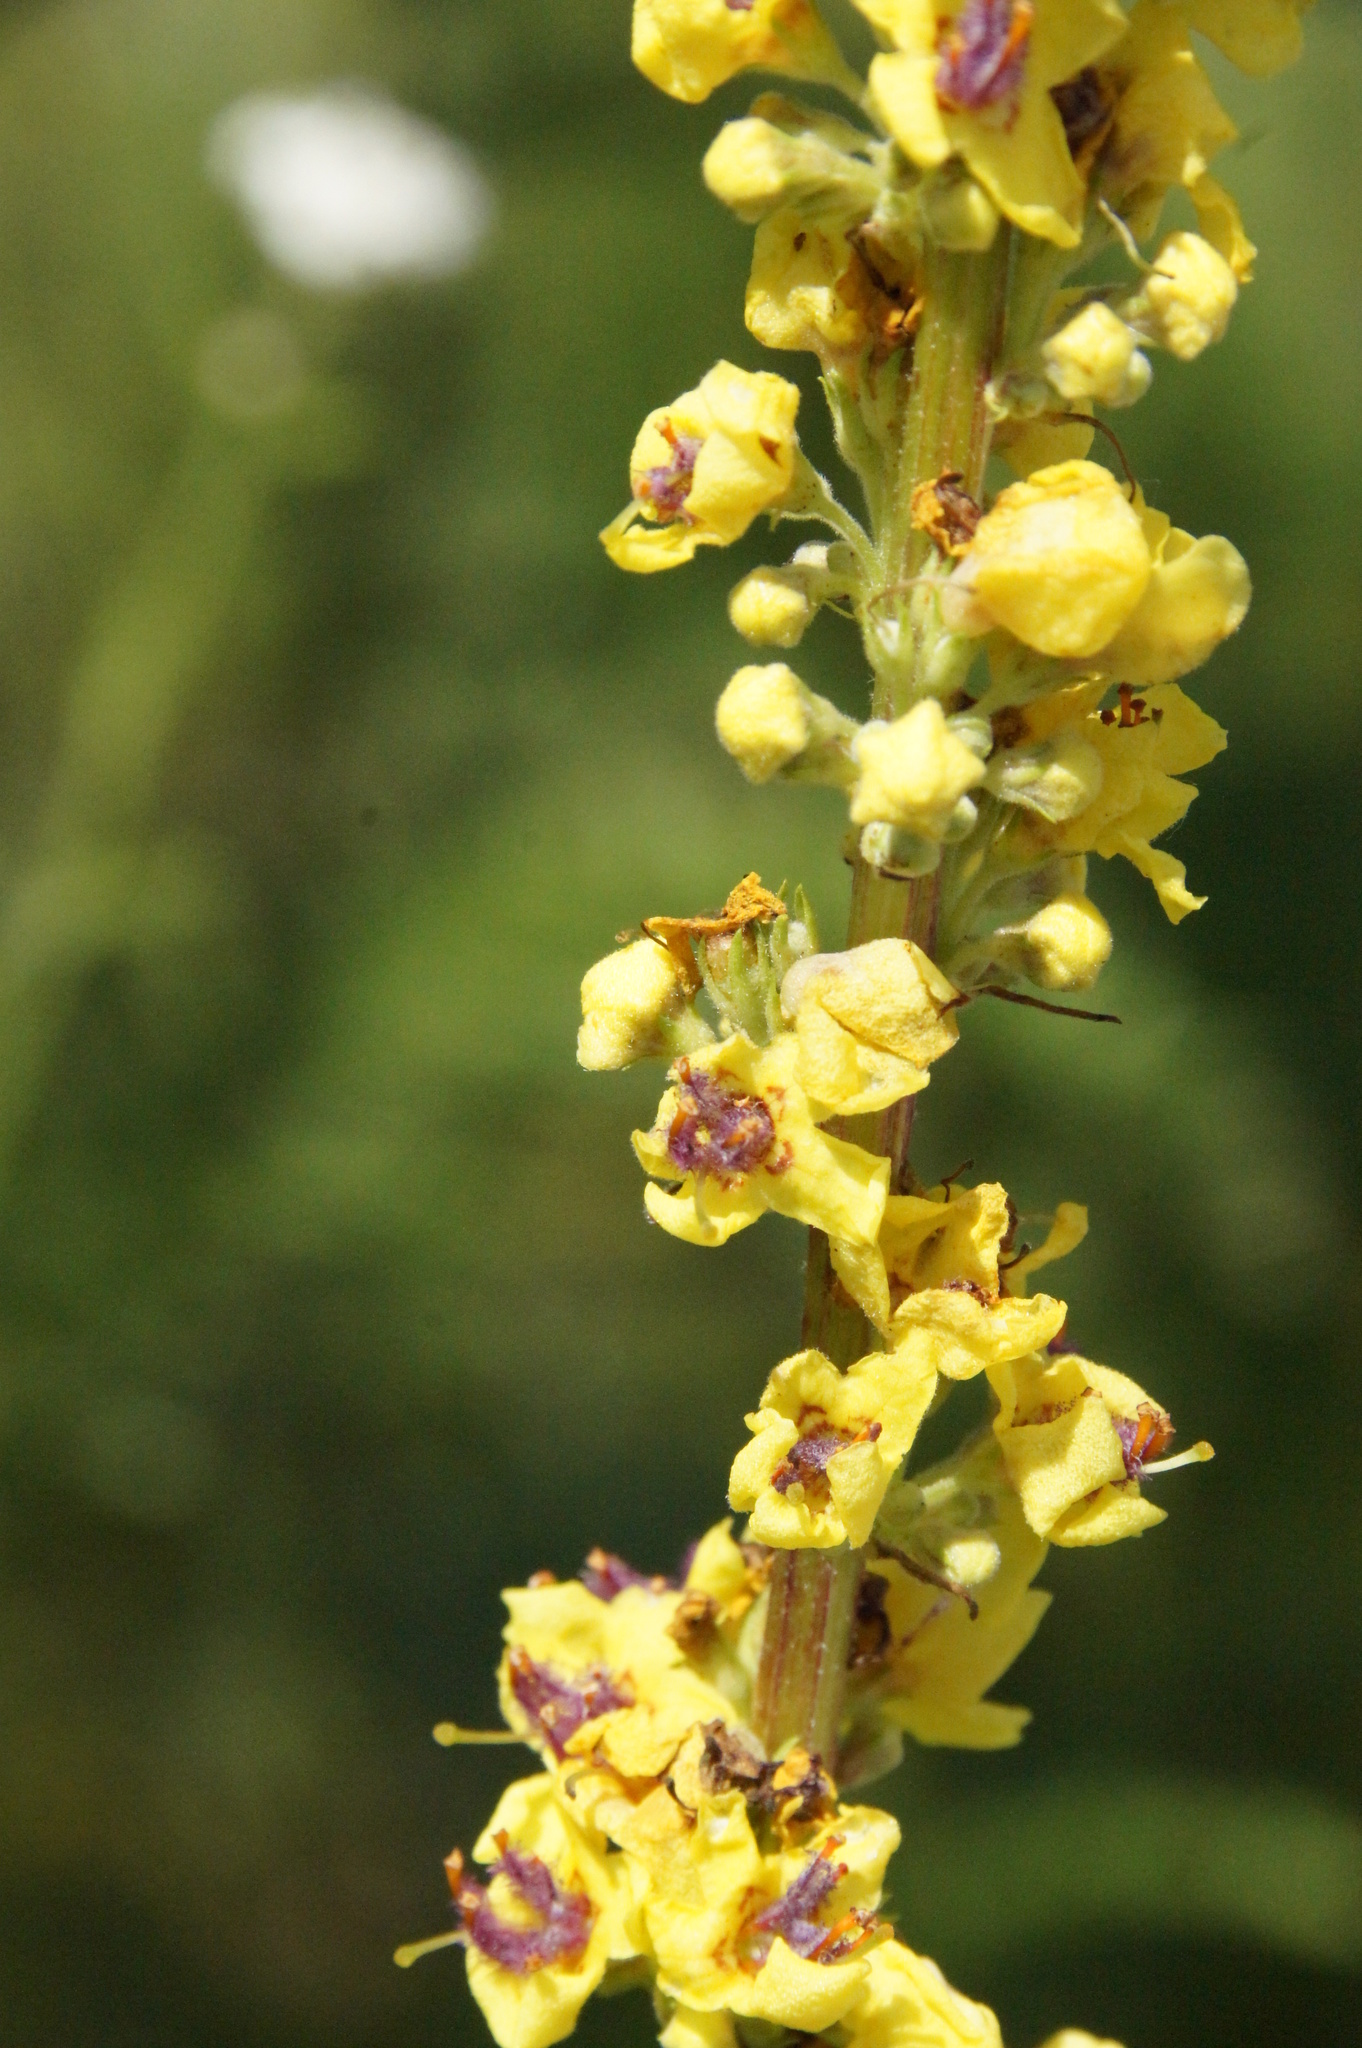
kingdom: Plantae
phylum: Tracheophyta
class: Magnoliopsida
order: Lamiales
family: Scrophulariaceae
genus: Verbascum
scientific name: Verbascum nigrum
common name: Dark mullein
